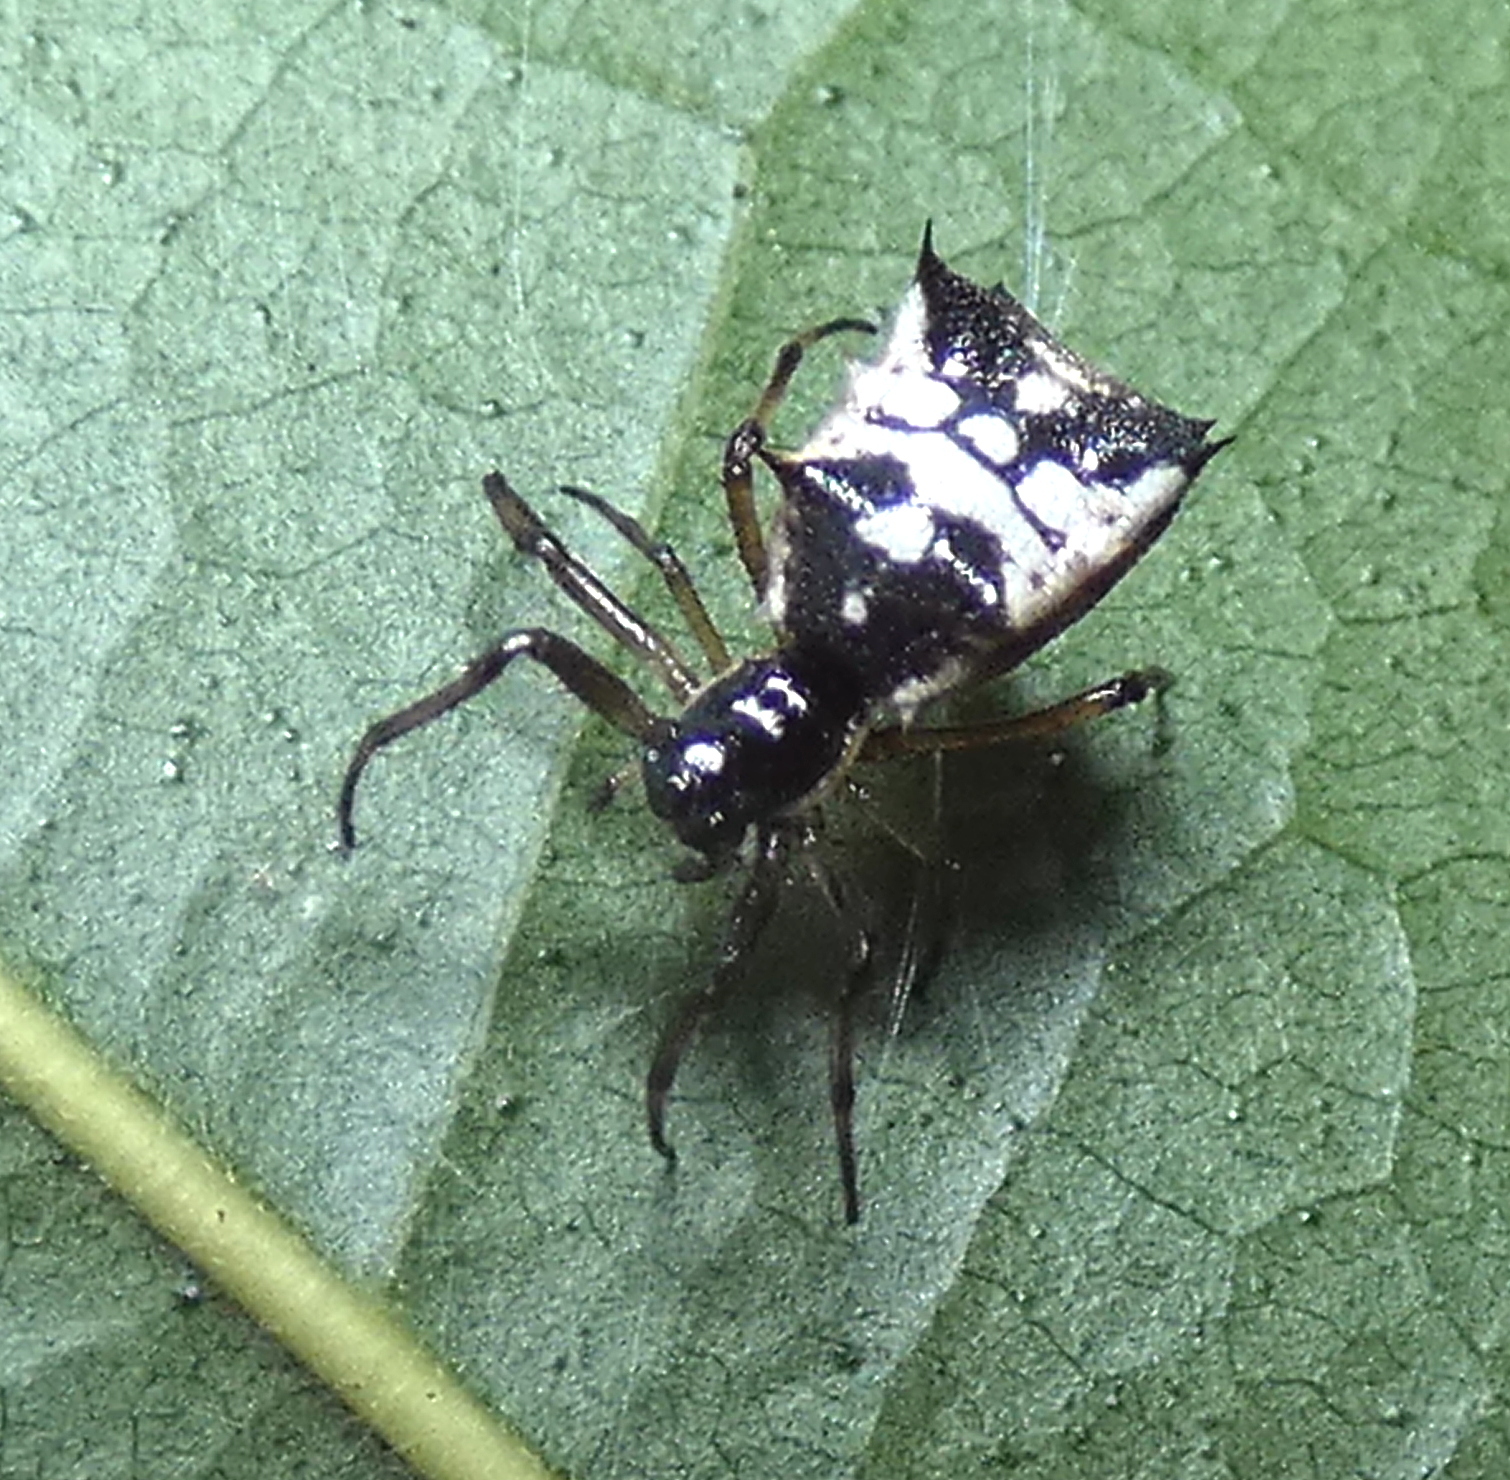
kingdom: Animalia
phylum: Arthropoda
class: Arachnida
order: Araneae
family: Araneidae
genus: Micrathena
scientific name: Micrathena picta
